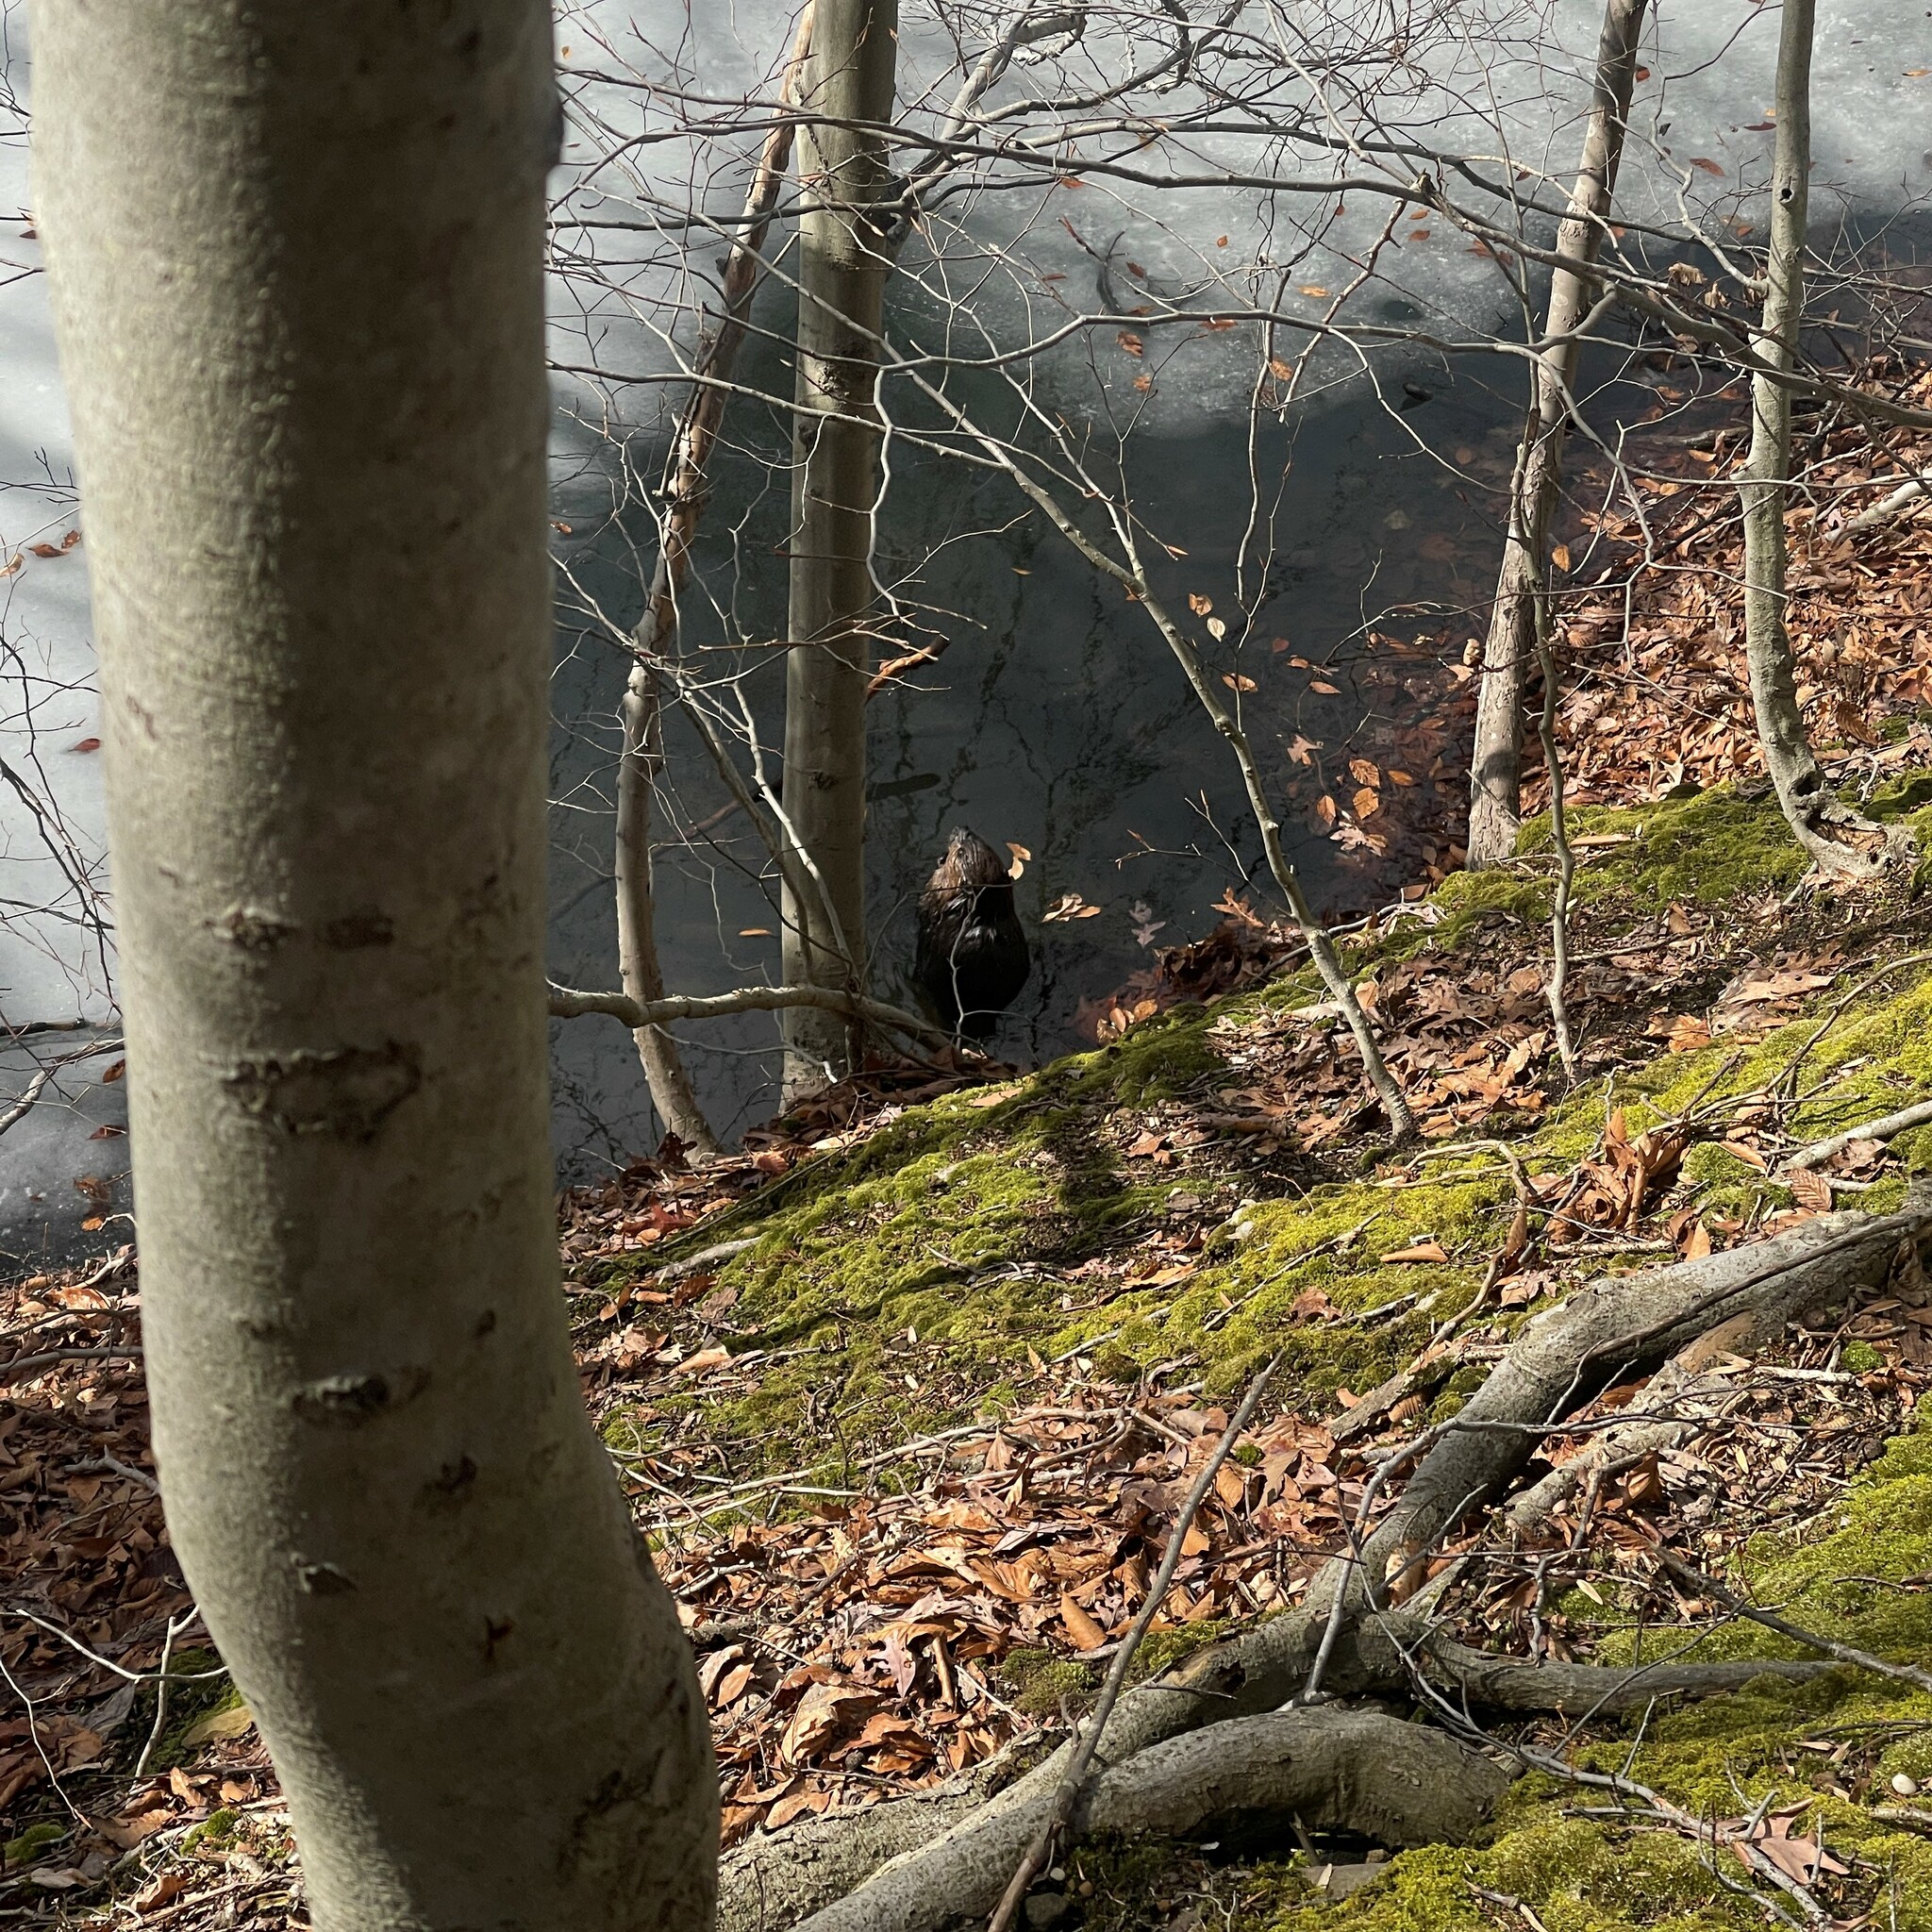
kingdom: Animalia
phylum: Chordata
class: Mammalia
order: Rodentia
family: Castoridae
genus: Castor
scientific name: Castor canadensis
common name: American beaver
